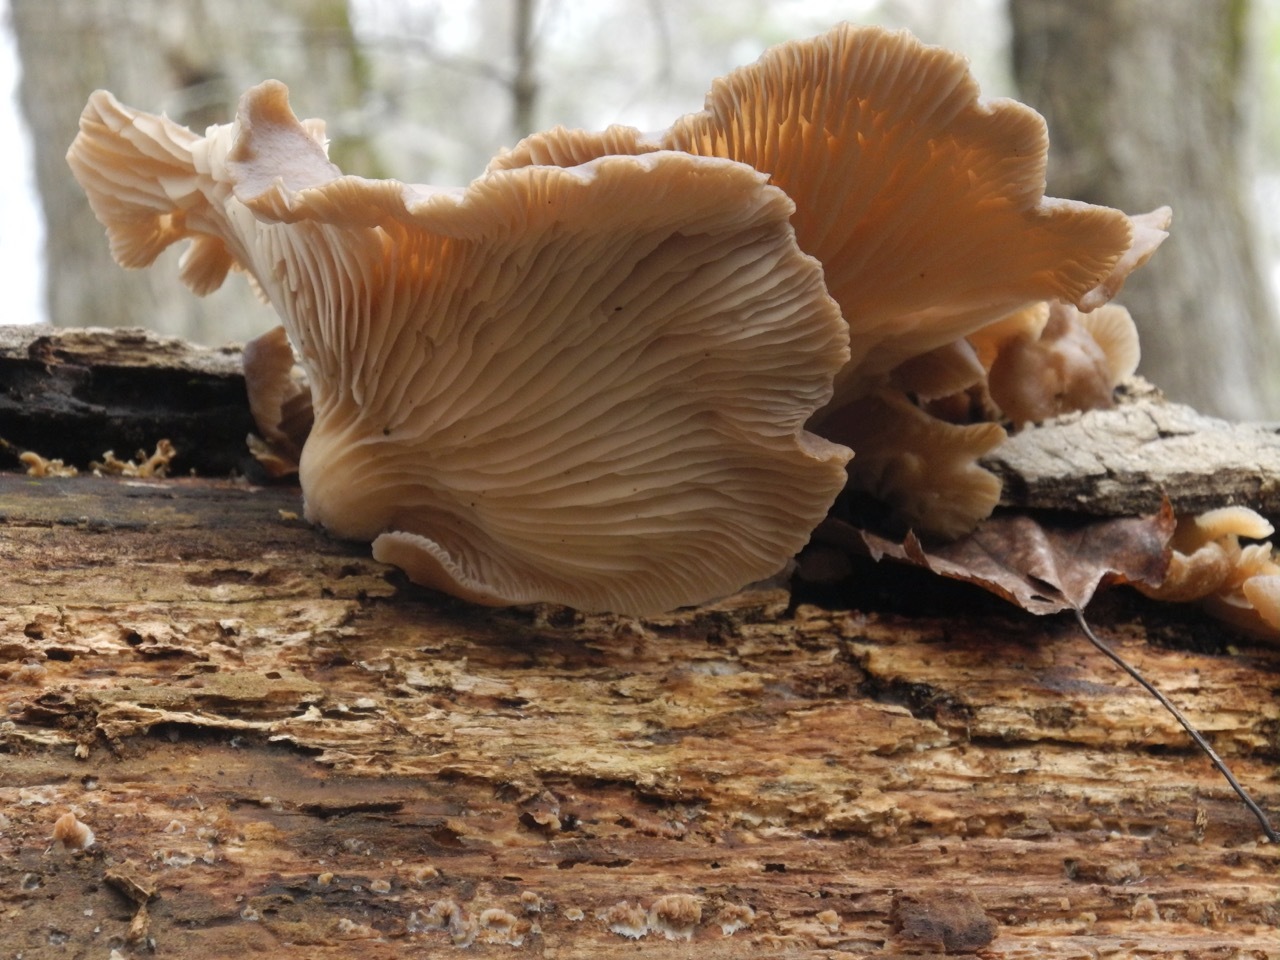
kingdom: Fungi
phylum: Basidiomycota
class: Agaricomycetes
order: Agaricales
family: Pleurotaceae
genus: Pleurotus
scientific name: Pleurotus ostreatus
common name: Oyster mushroom
